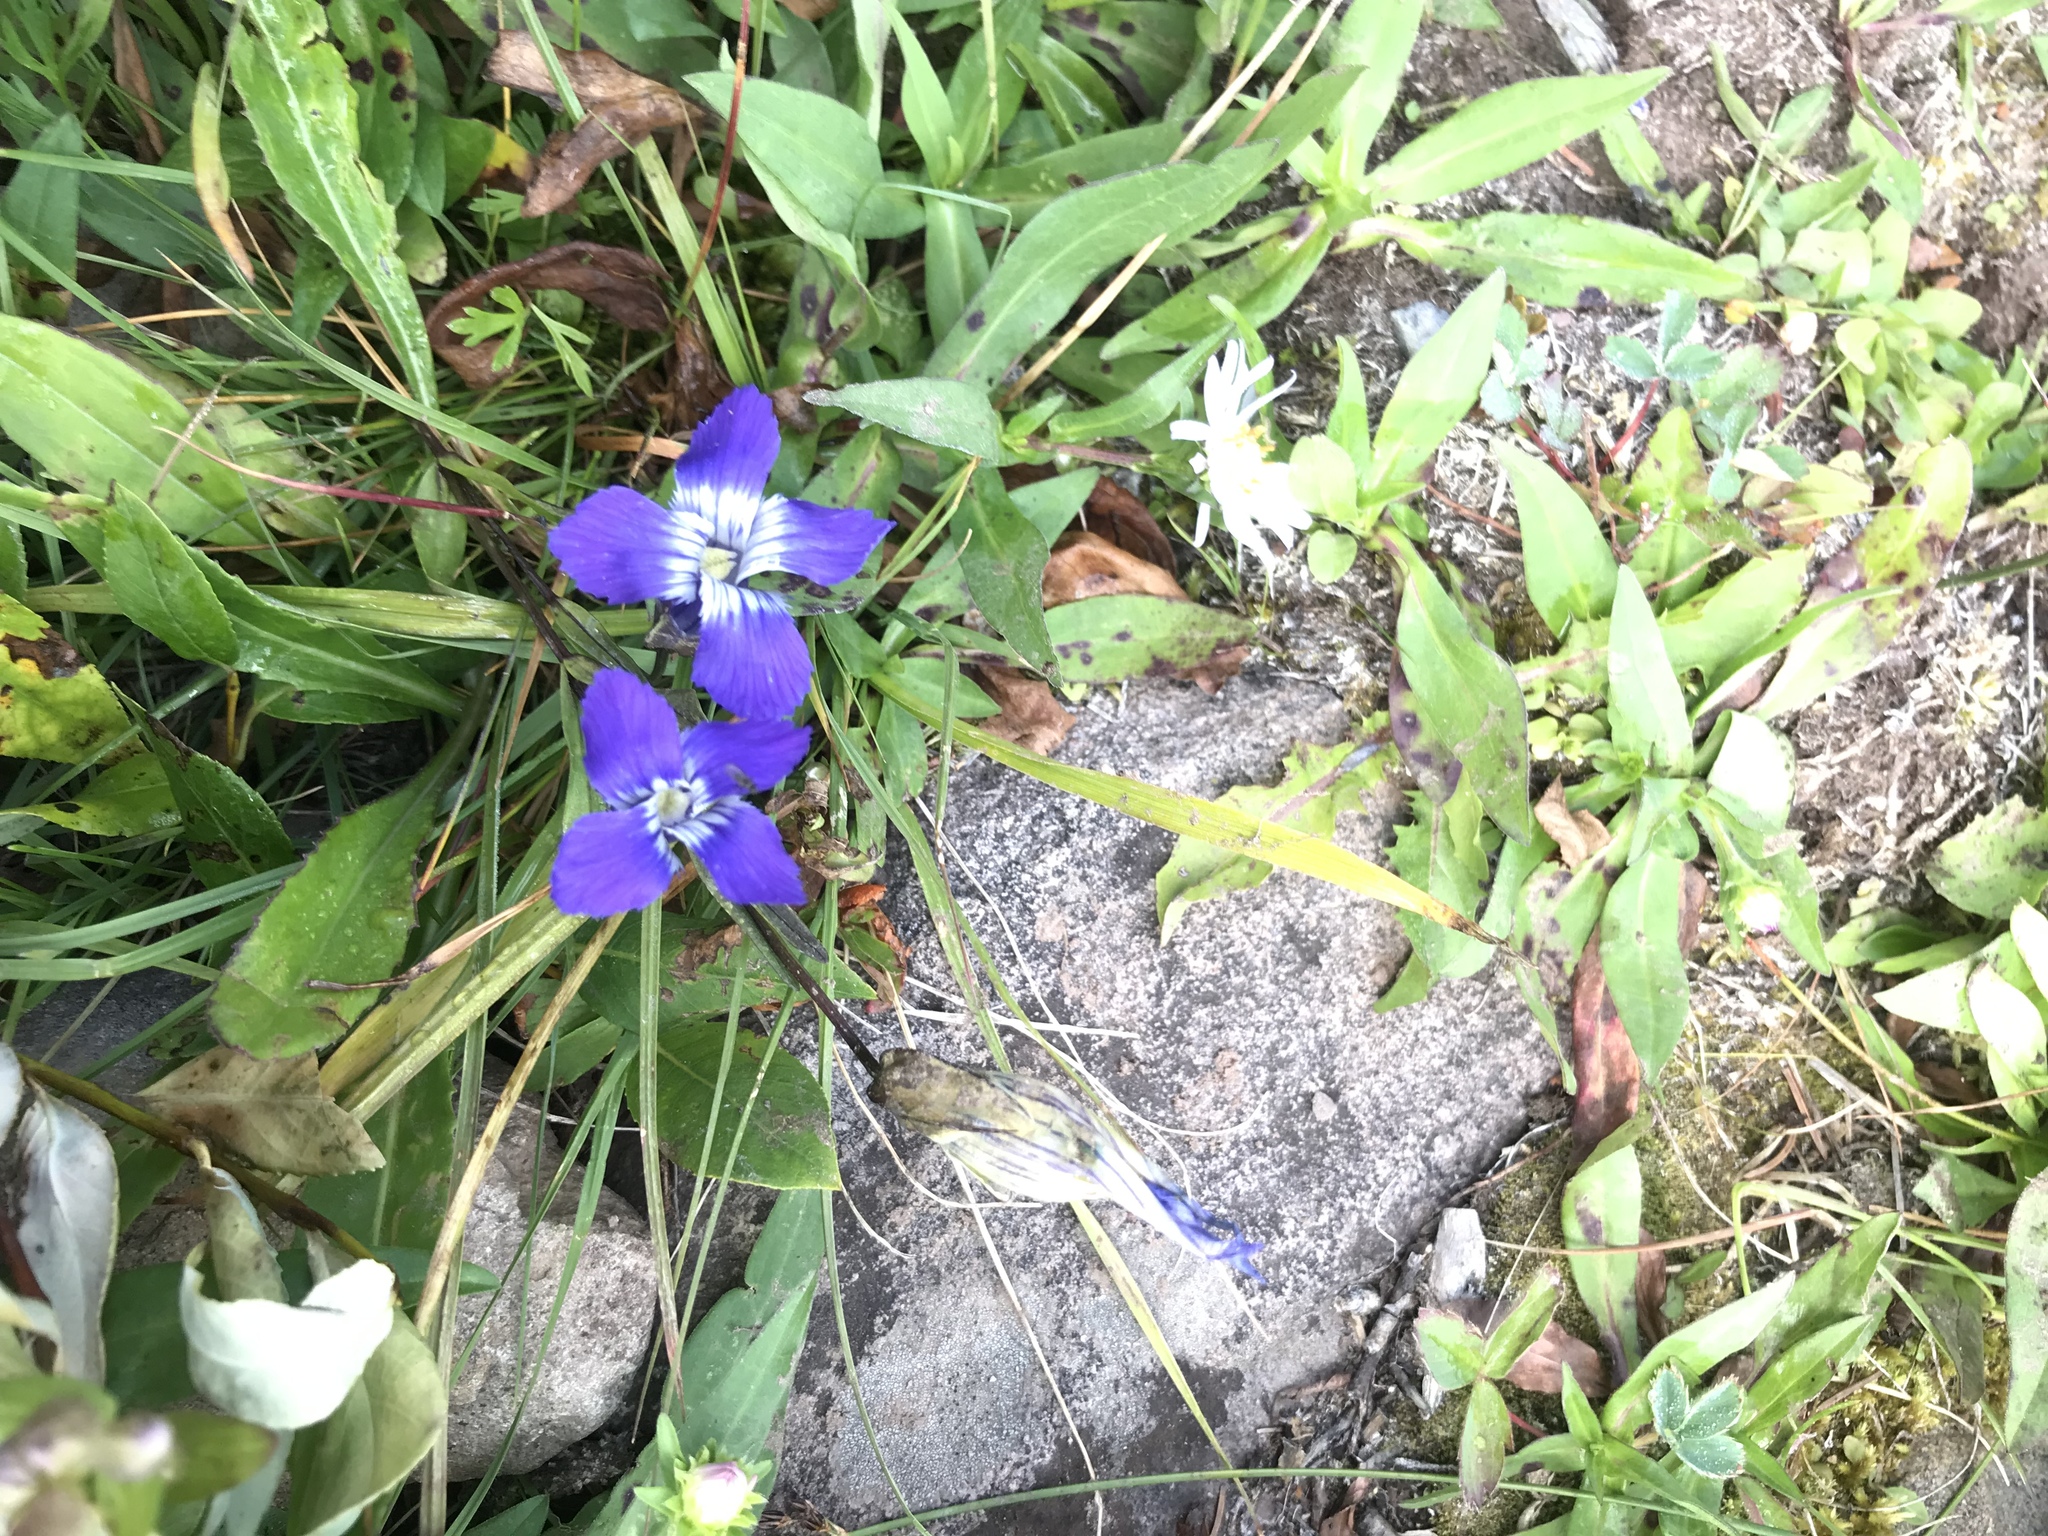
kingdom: Plantae
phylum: Tracheophyta
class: Magnoliopsida
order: Gentianales
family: Gentianaceae
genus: Gentianopsis
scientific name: Gentianopsis thermalis
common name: Rocky mountain fringed-gentian
